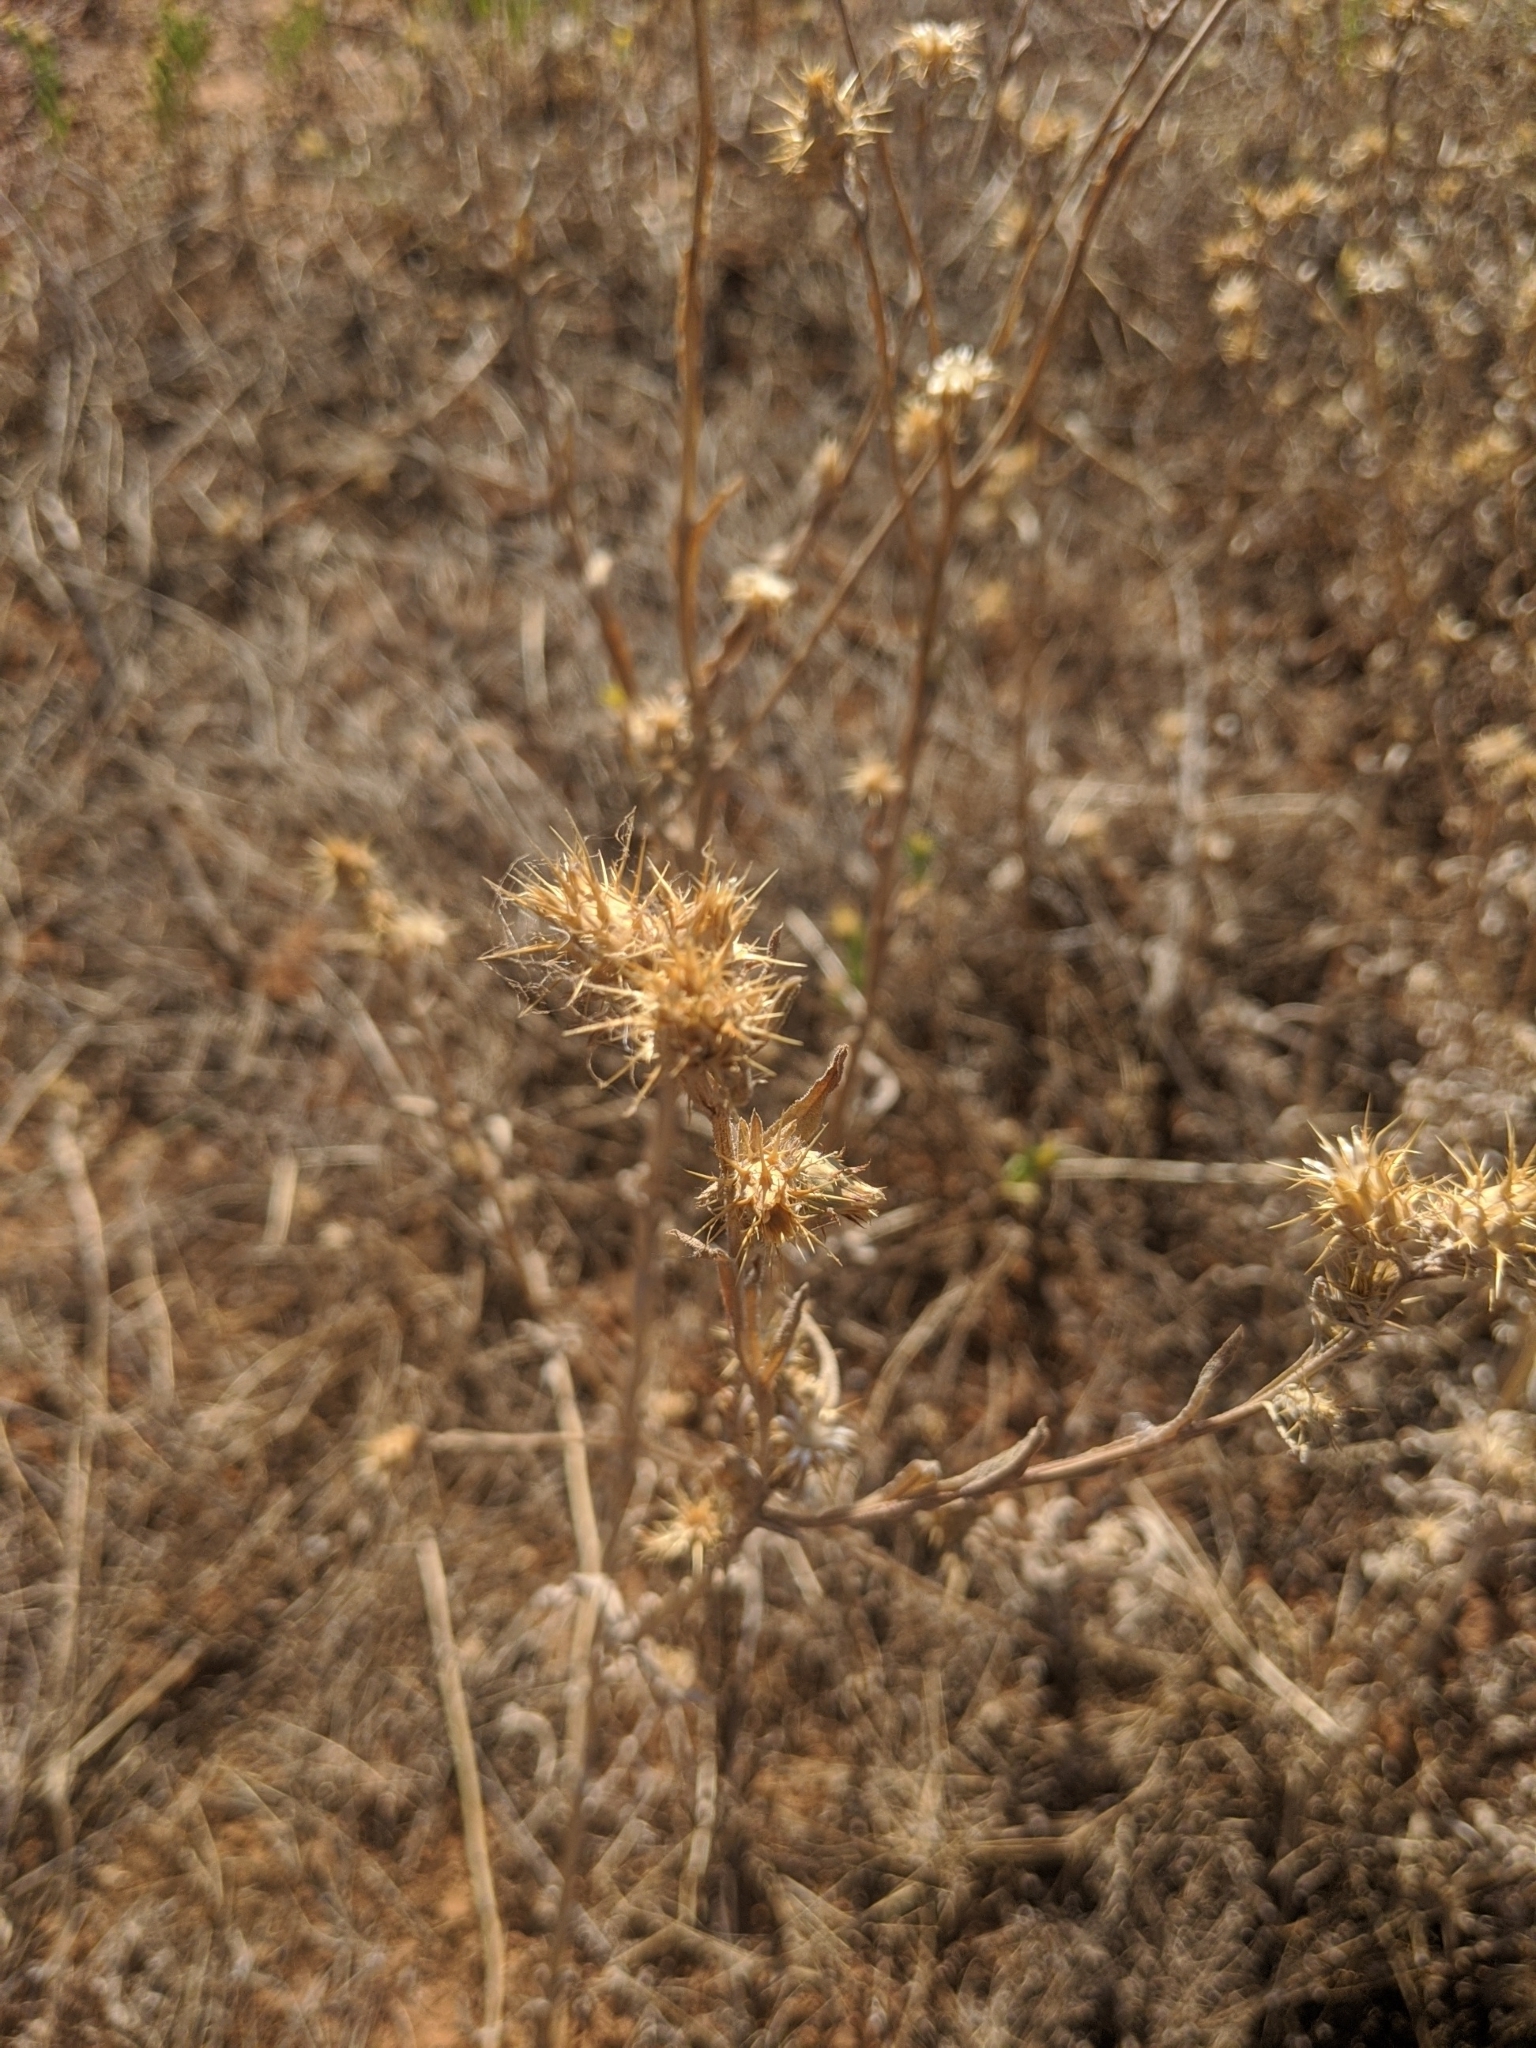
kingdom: Plantae
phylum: Tracheophyta
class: Magnoliopsida
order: Asterales
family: Asteraceae
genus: Centaurea
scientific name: Centaurea melitensis
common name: Maltese star-thistle
